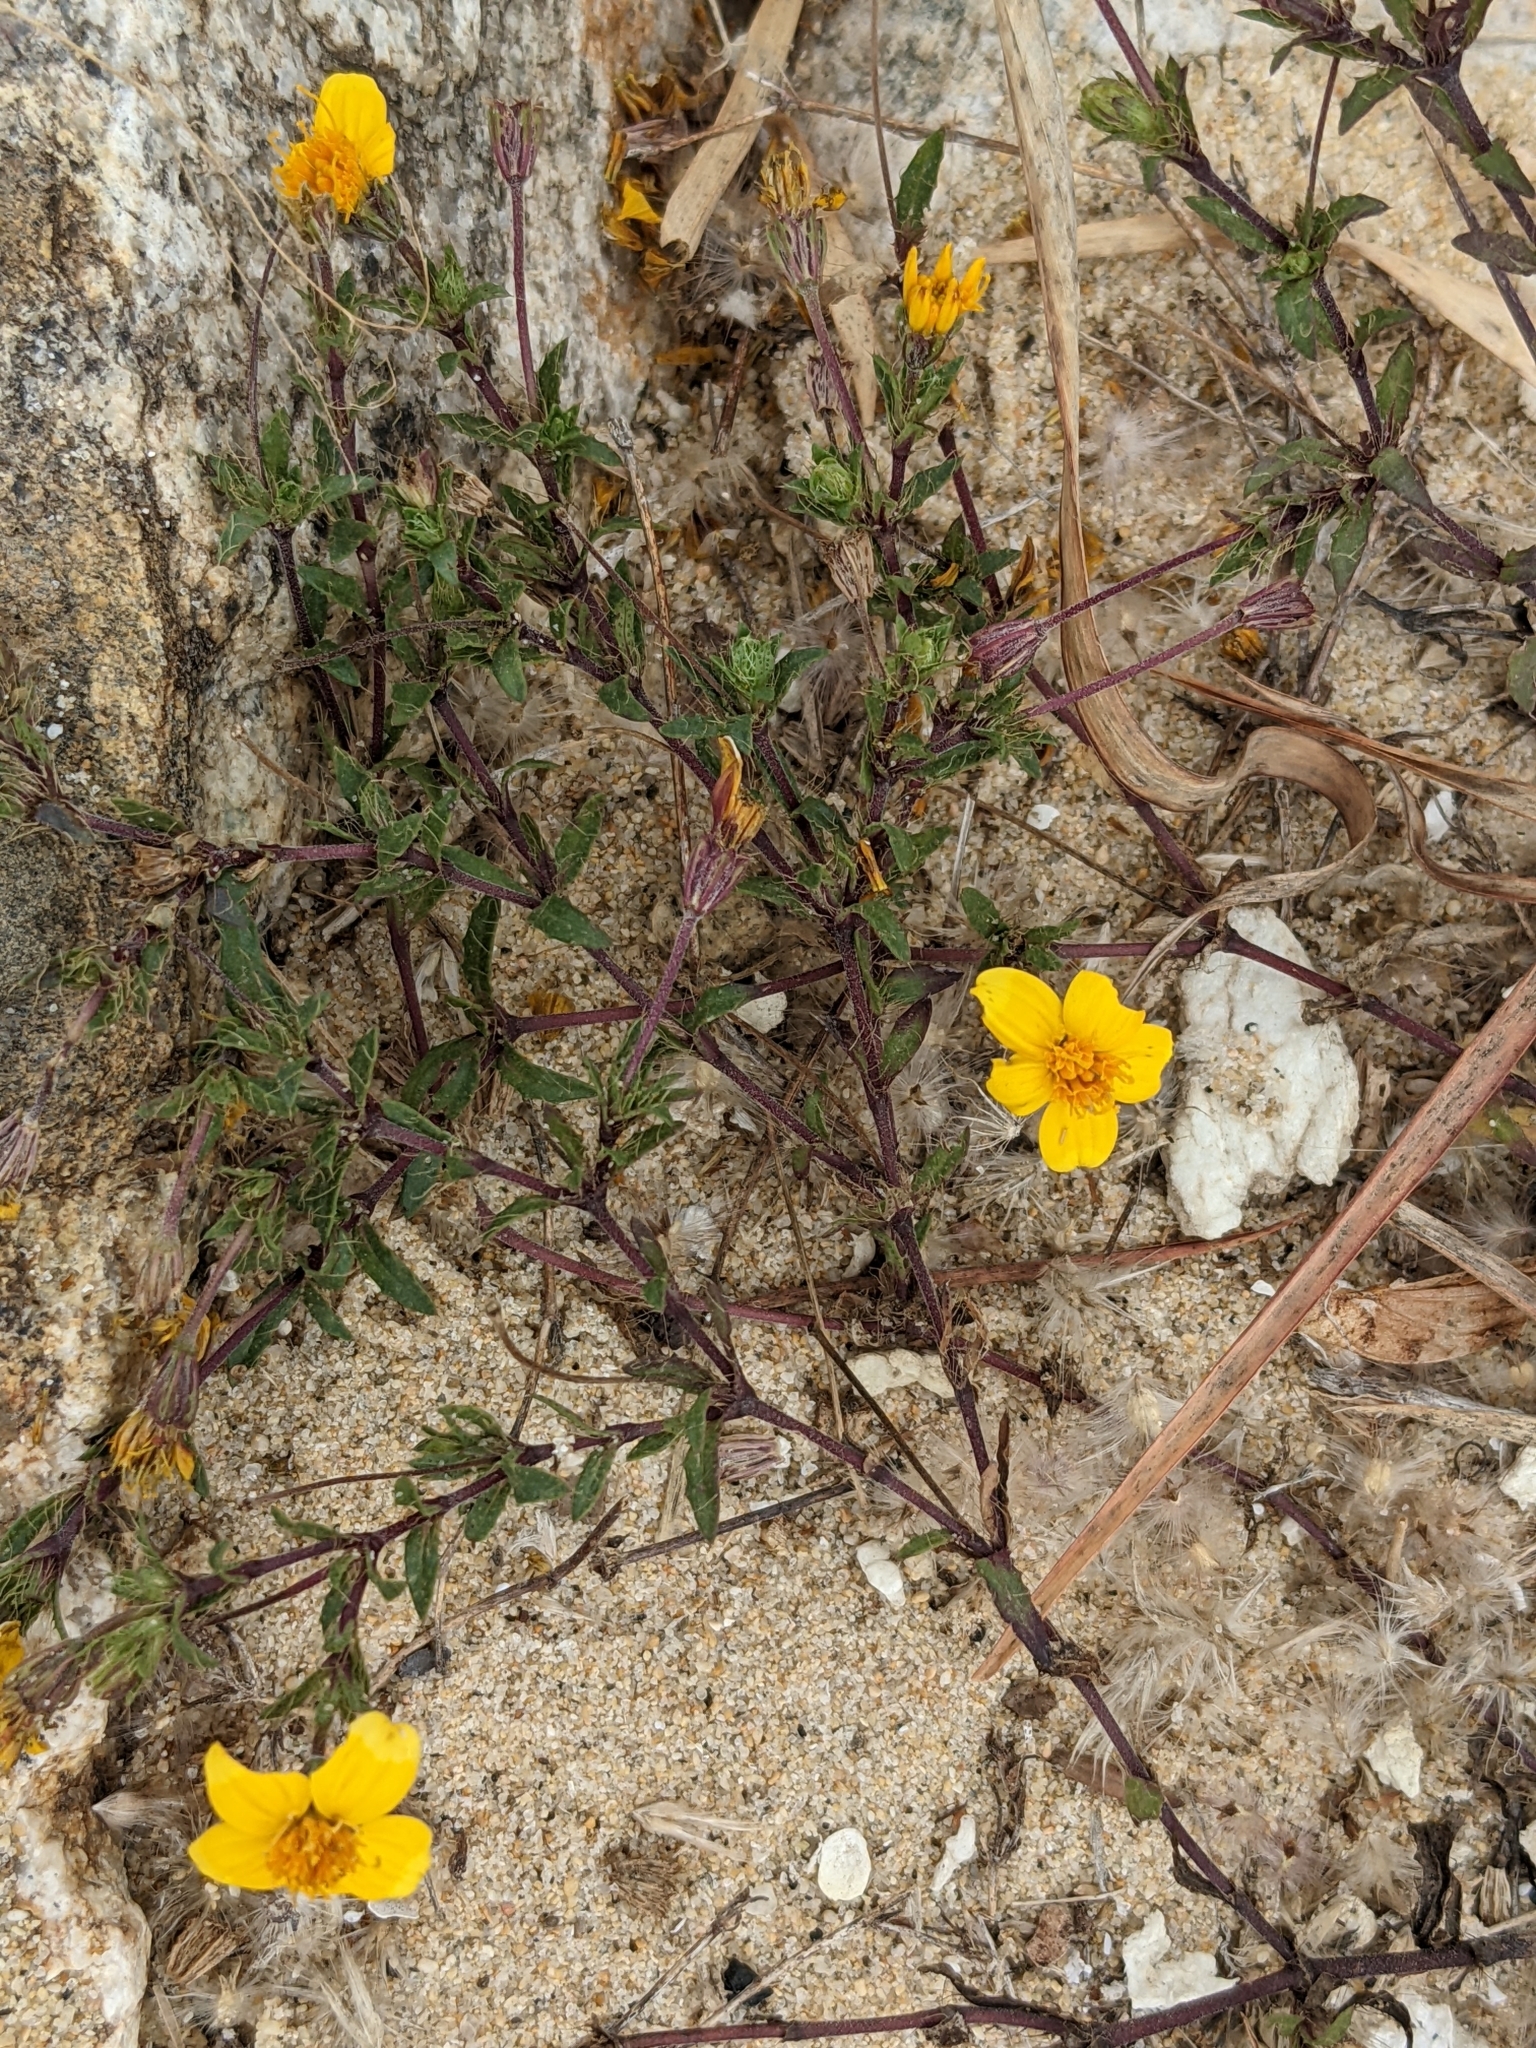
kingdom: Plantae
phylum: Tracheophyta
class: Magnoliopsida
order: Asterales
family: Asteraceae
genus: Pectis
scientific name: Pectis multiseta
